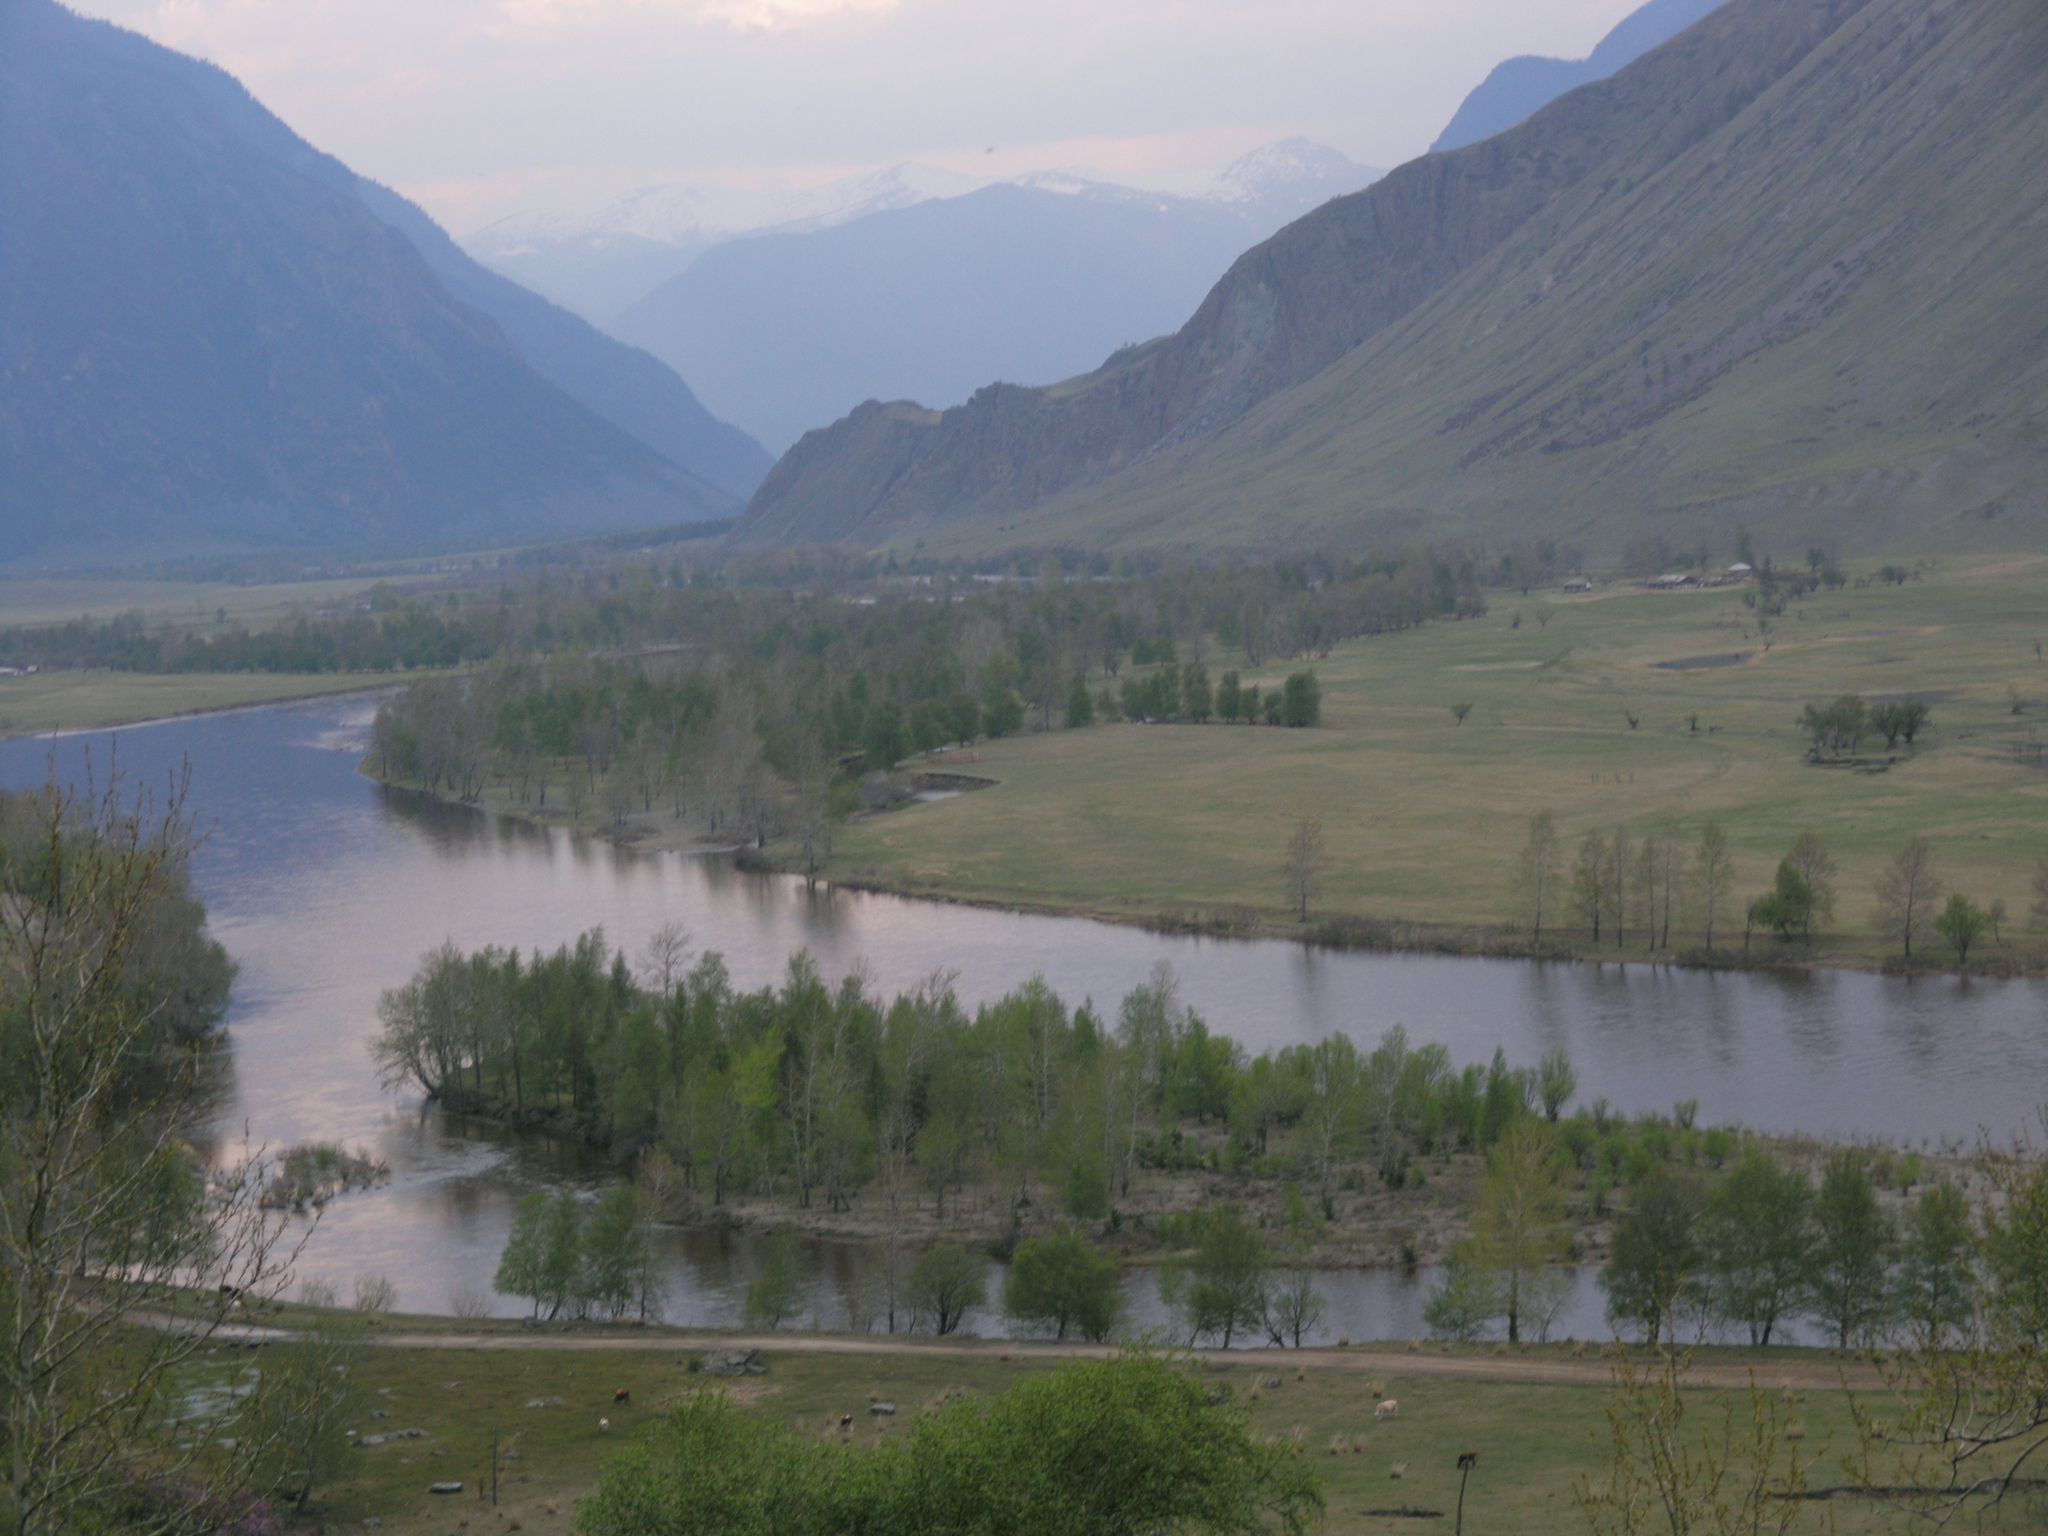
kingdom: Plantae
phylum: Tracheophyta
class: Magnoliopsida
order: Malpighiales
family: Salicaceae
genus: Populus
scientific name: Populus laurifolia
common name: Laurel-leaf poplar
